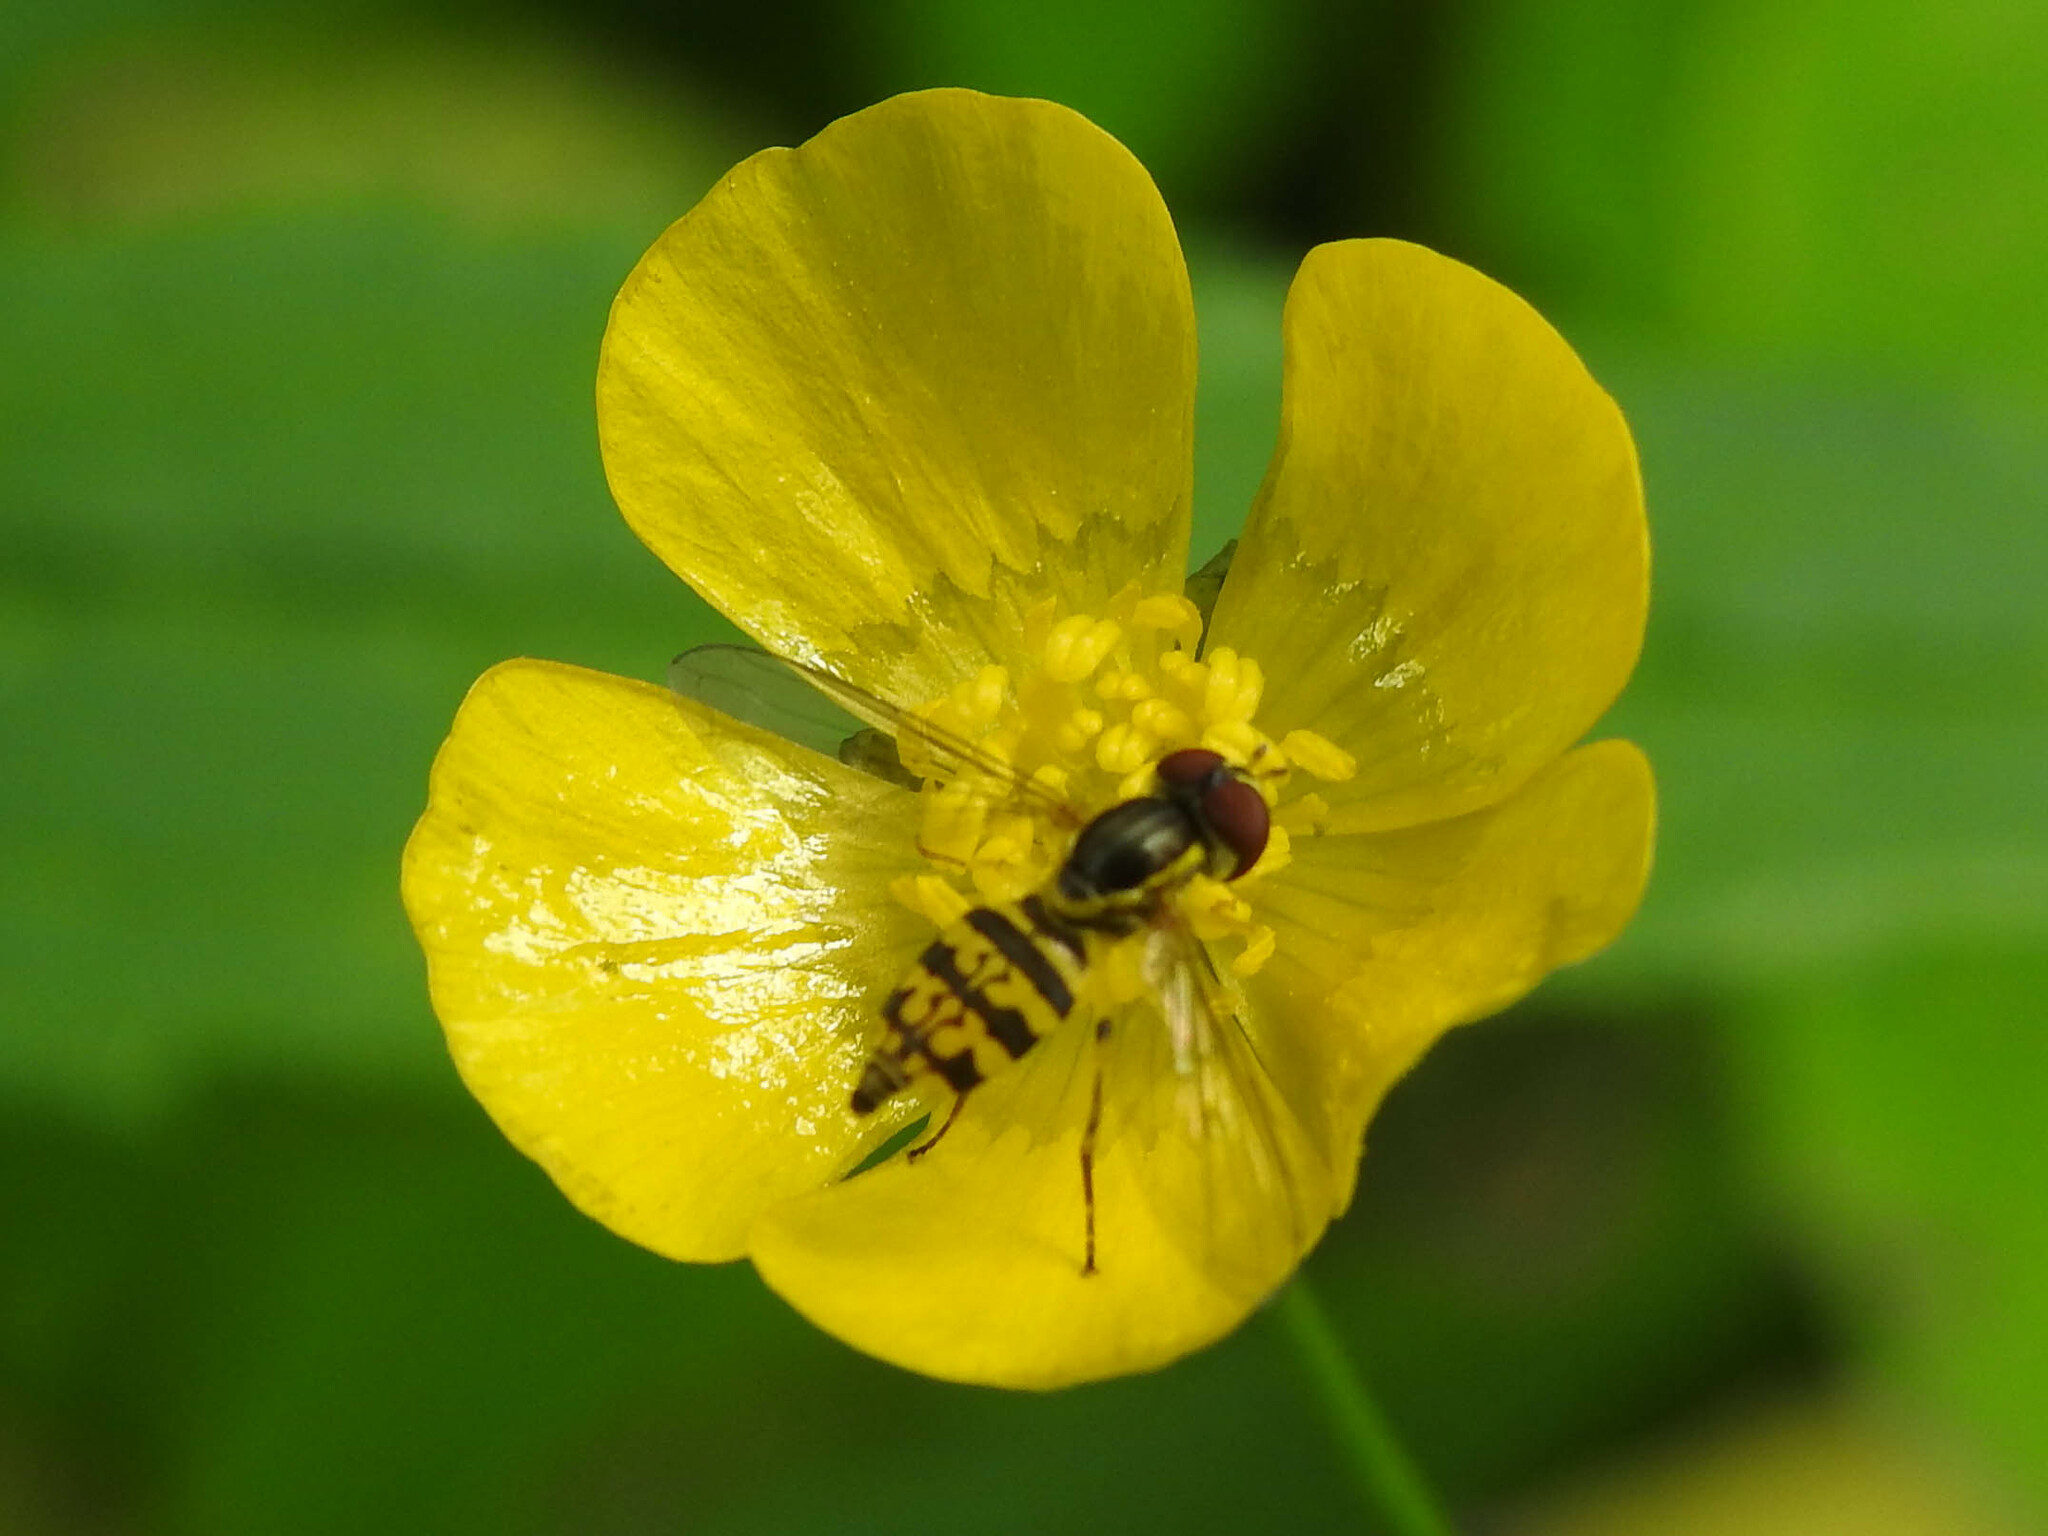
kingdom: Animalia
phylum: Arthropoda
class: Insecta
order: Diptera
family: Syrphidae
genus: Toxomerus
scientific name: Toxomerus geminatus
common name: Eastern calligrapher
